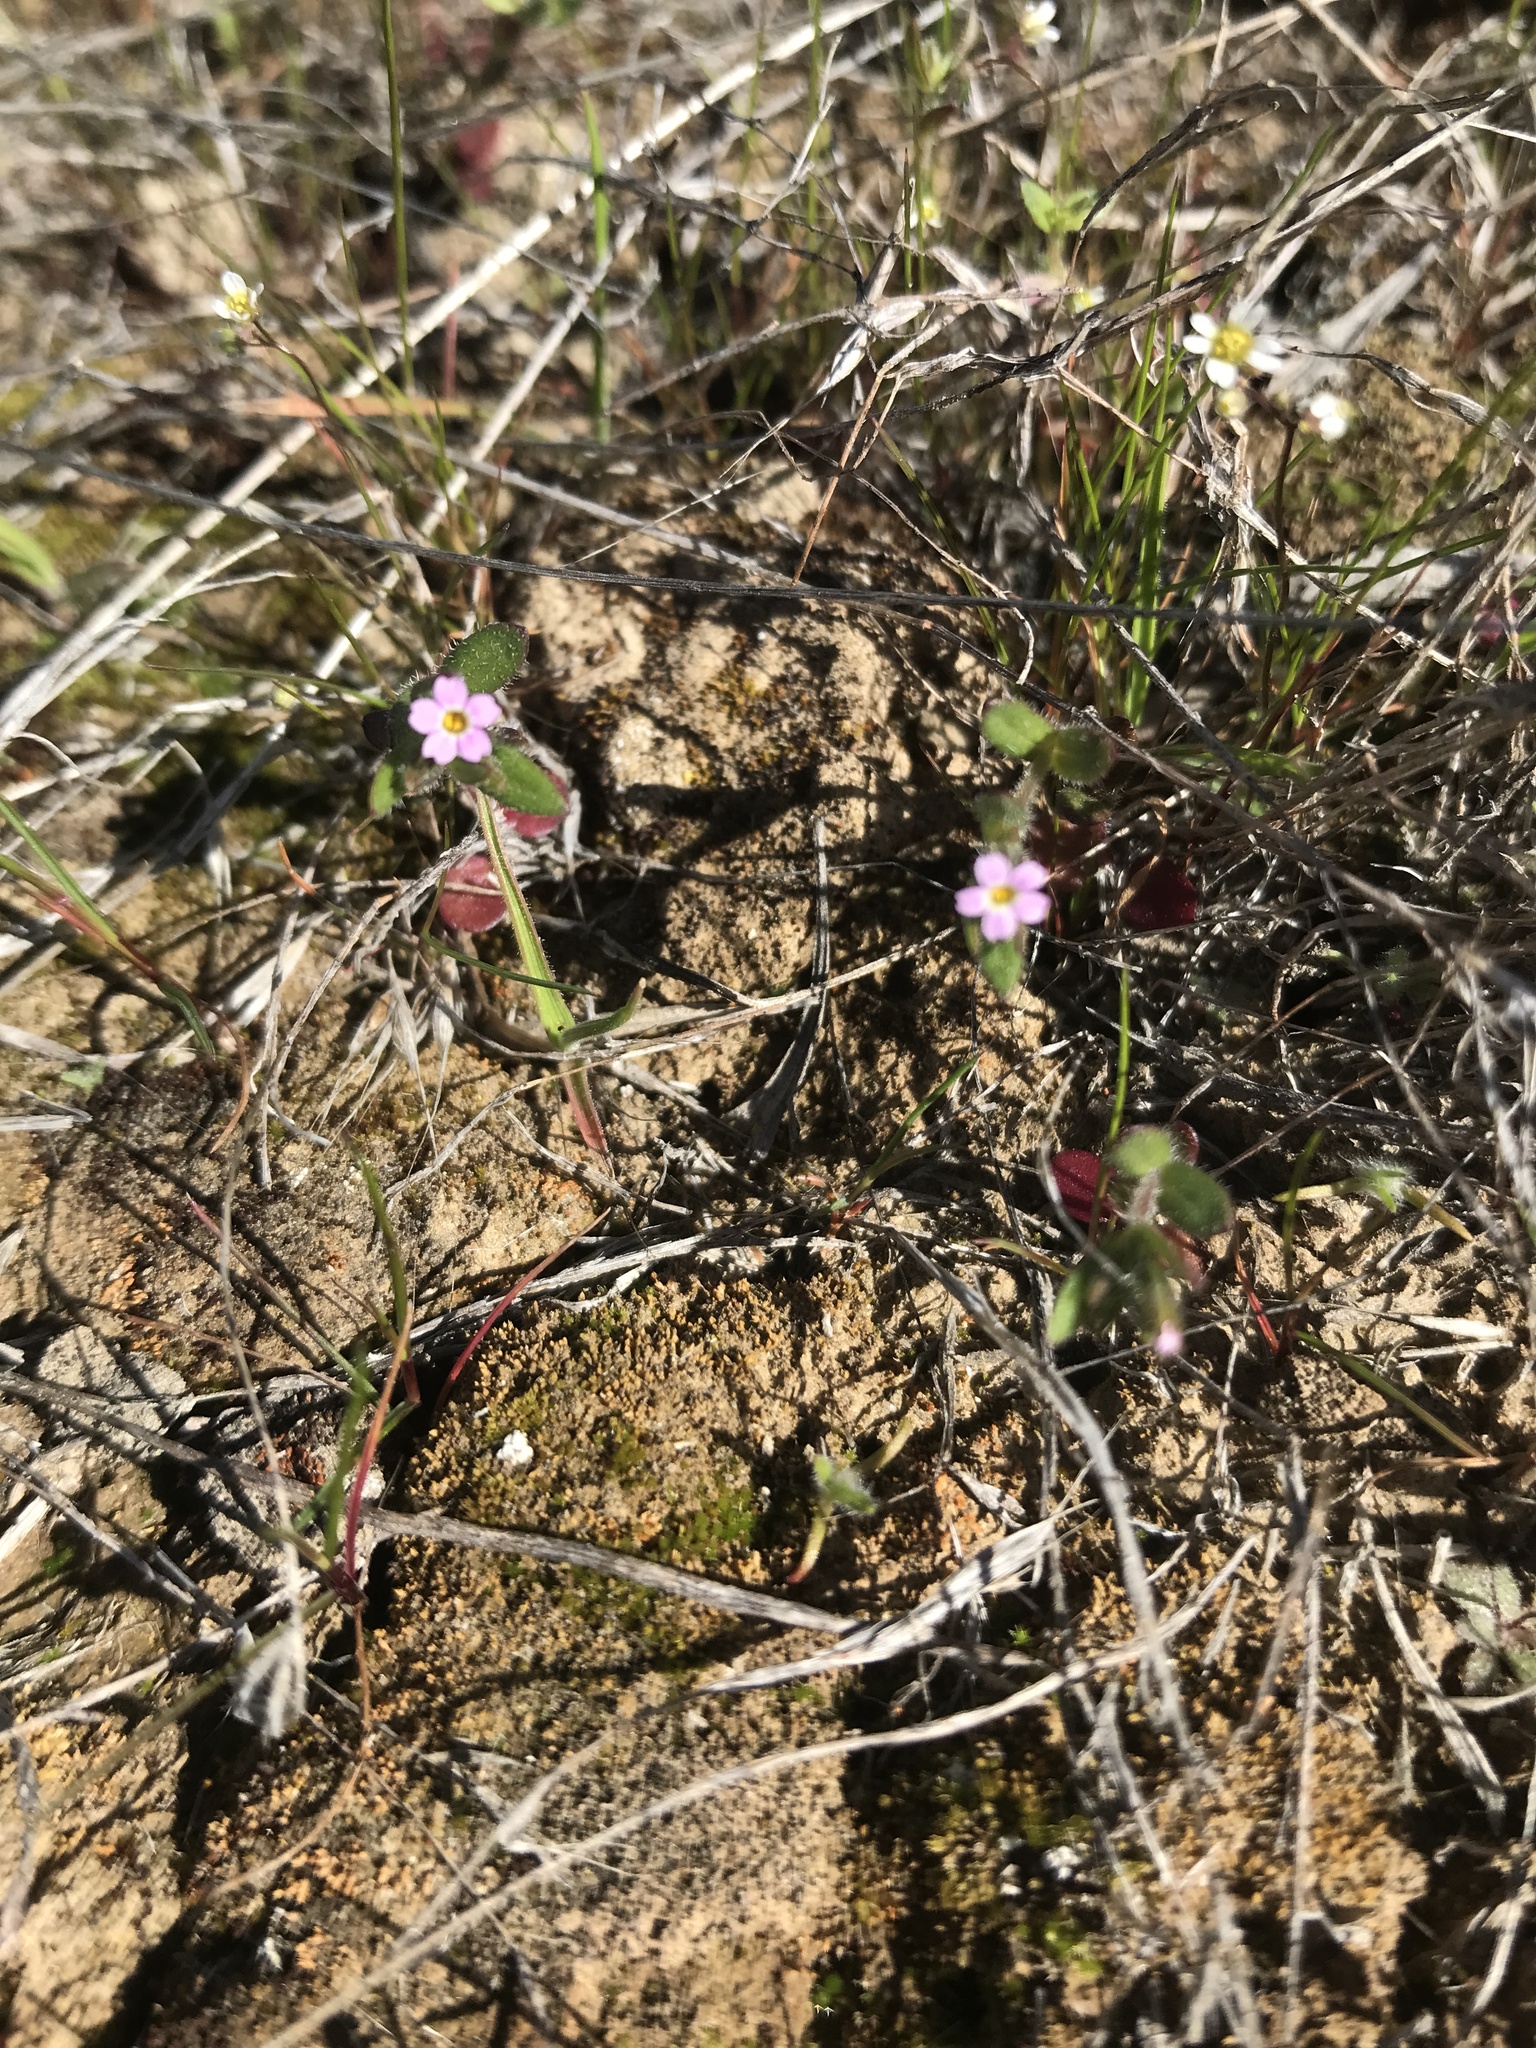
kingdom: Plantae
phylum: Tracheophyta
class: Magnoliopsida
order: Ericales
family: Polemoniaceae
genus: Phlox
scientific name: Phlox gracilis
